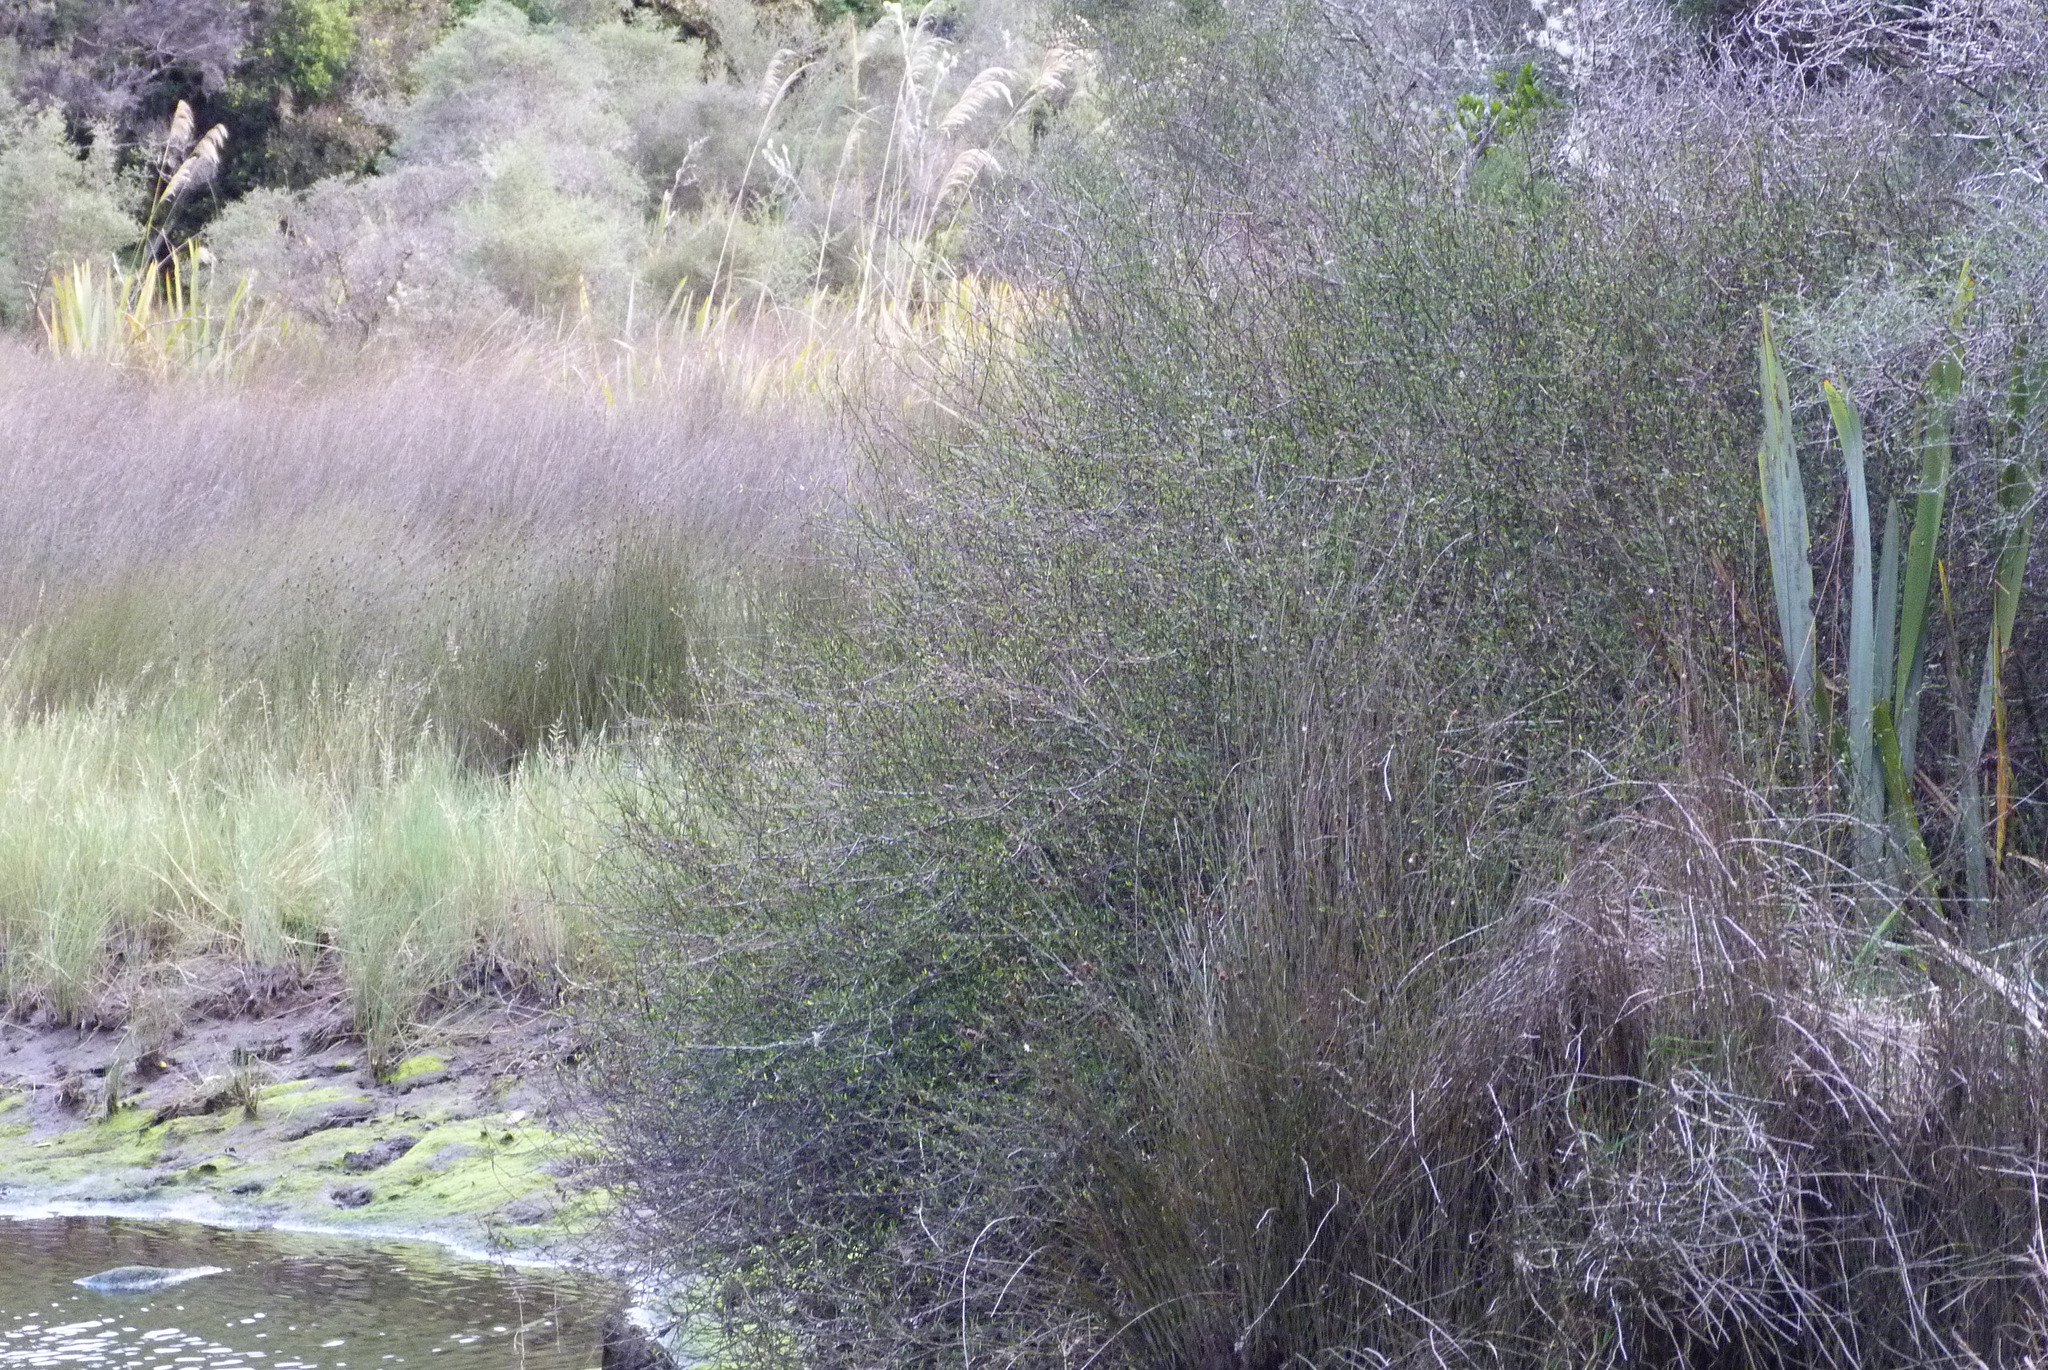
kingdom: Plantae
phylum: Tracheophyta
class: Magnoliopsida
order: Malvales
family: Malvaceae
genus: Plagianthus
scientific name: Plagianthus divaricatus
